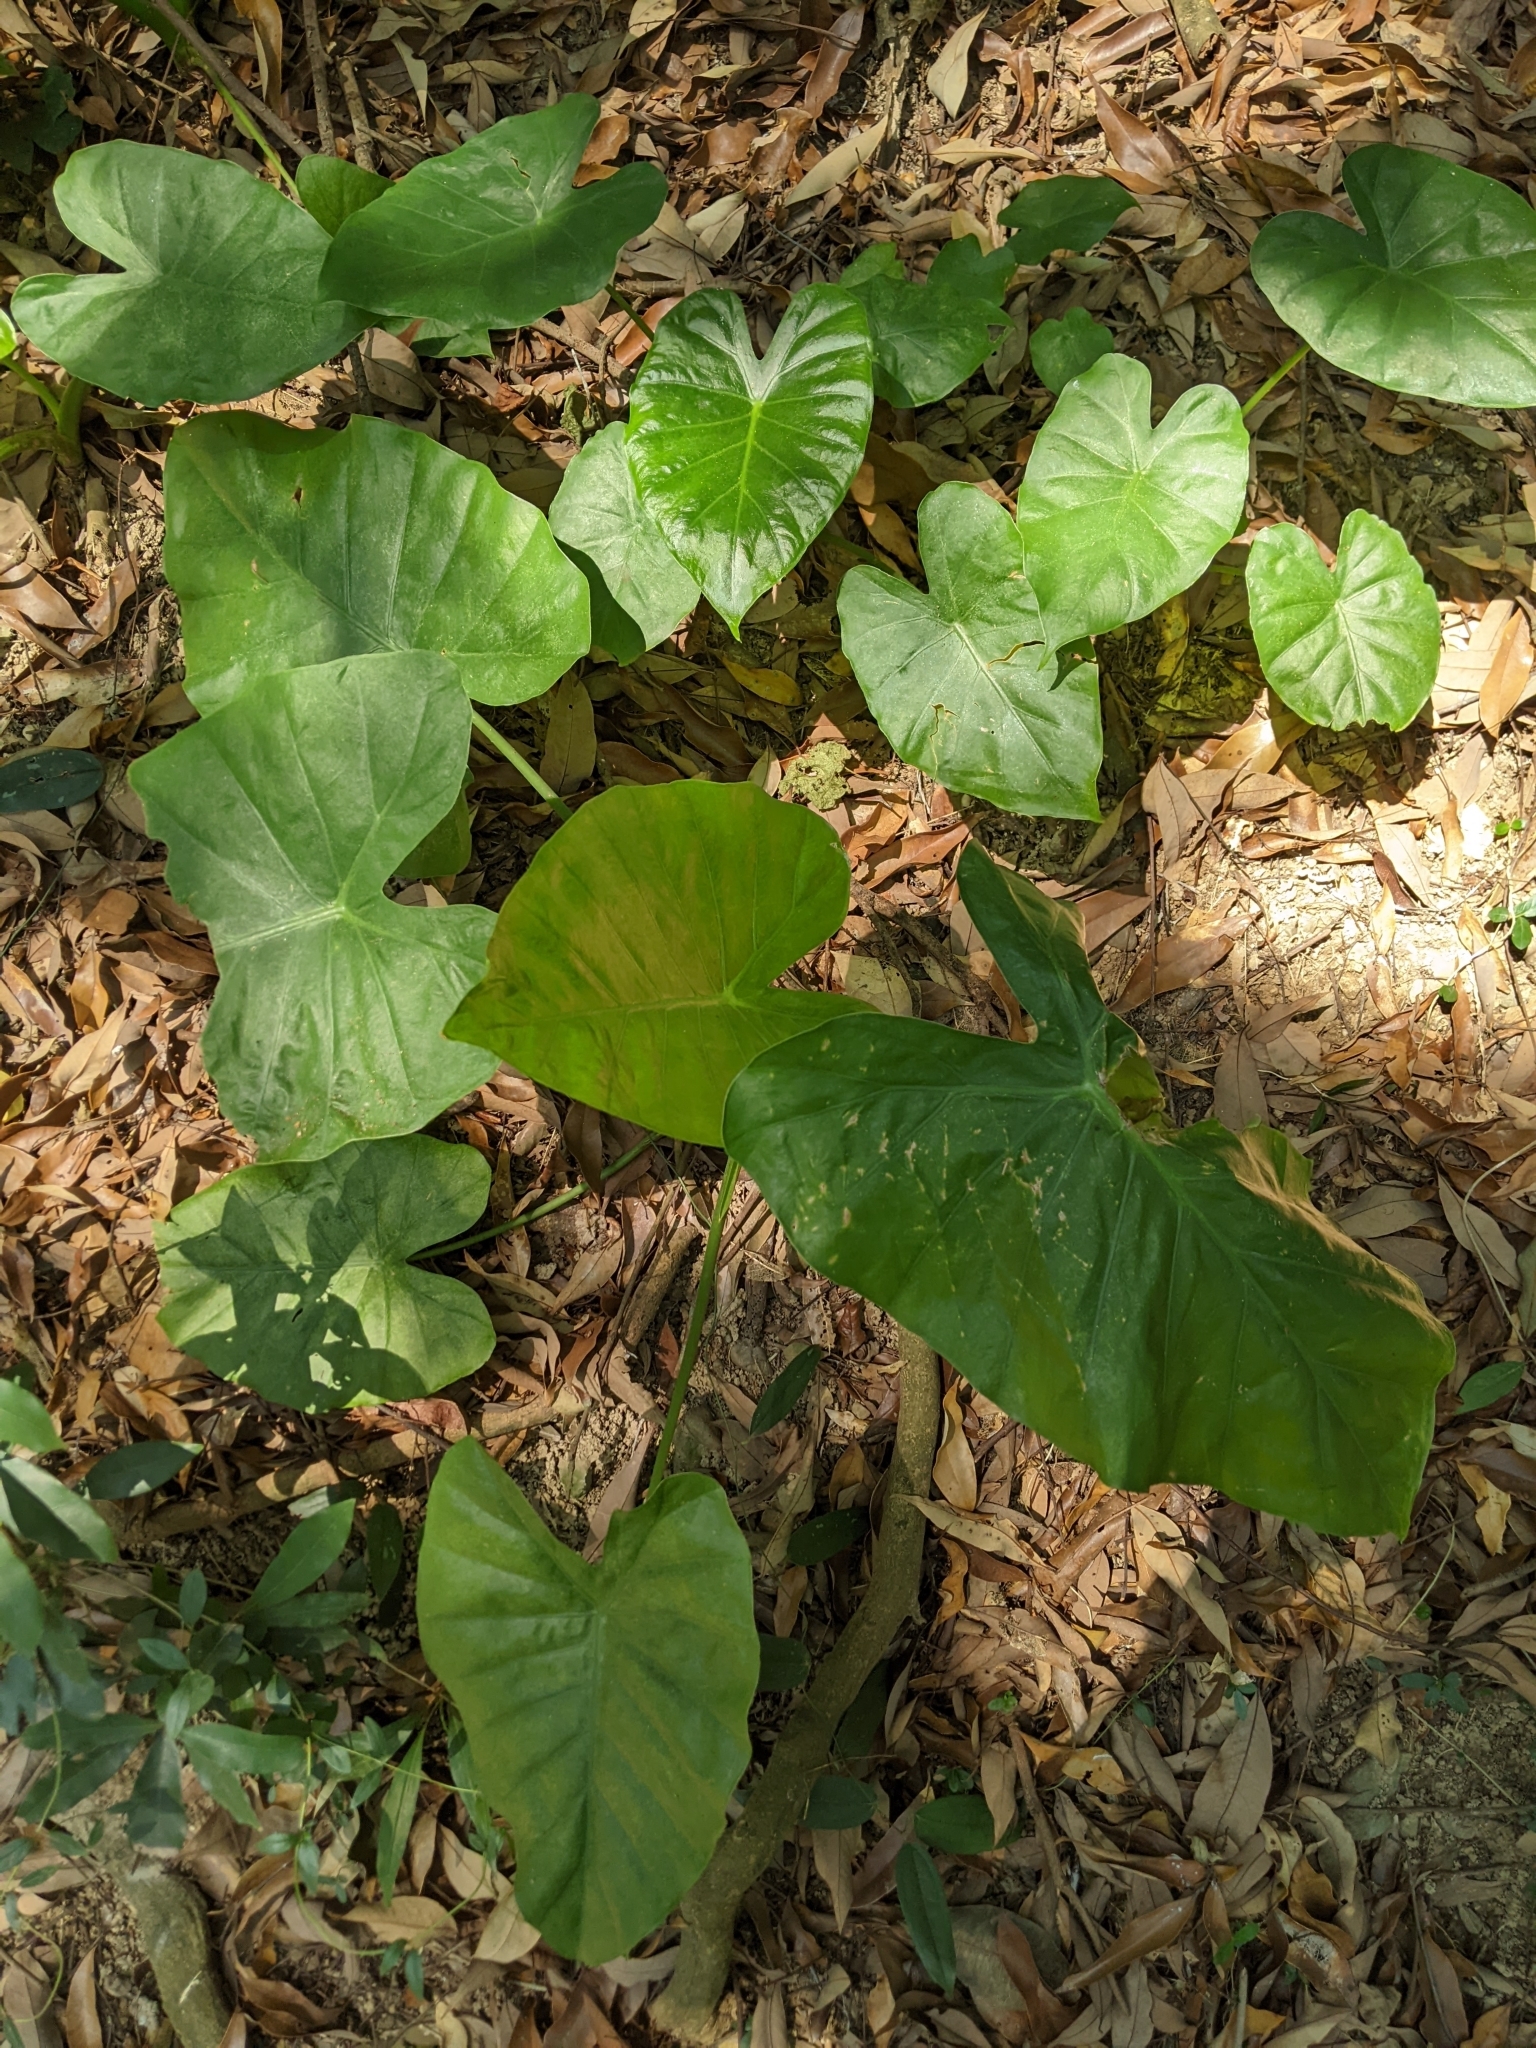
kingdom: Plantae
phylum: Tracheophyta
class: Liliopsida
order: Alismatales
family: Araceae
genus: Alocasia
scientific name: Alocasia odora
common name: Asian taro
